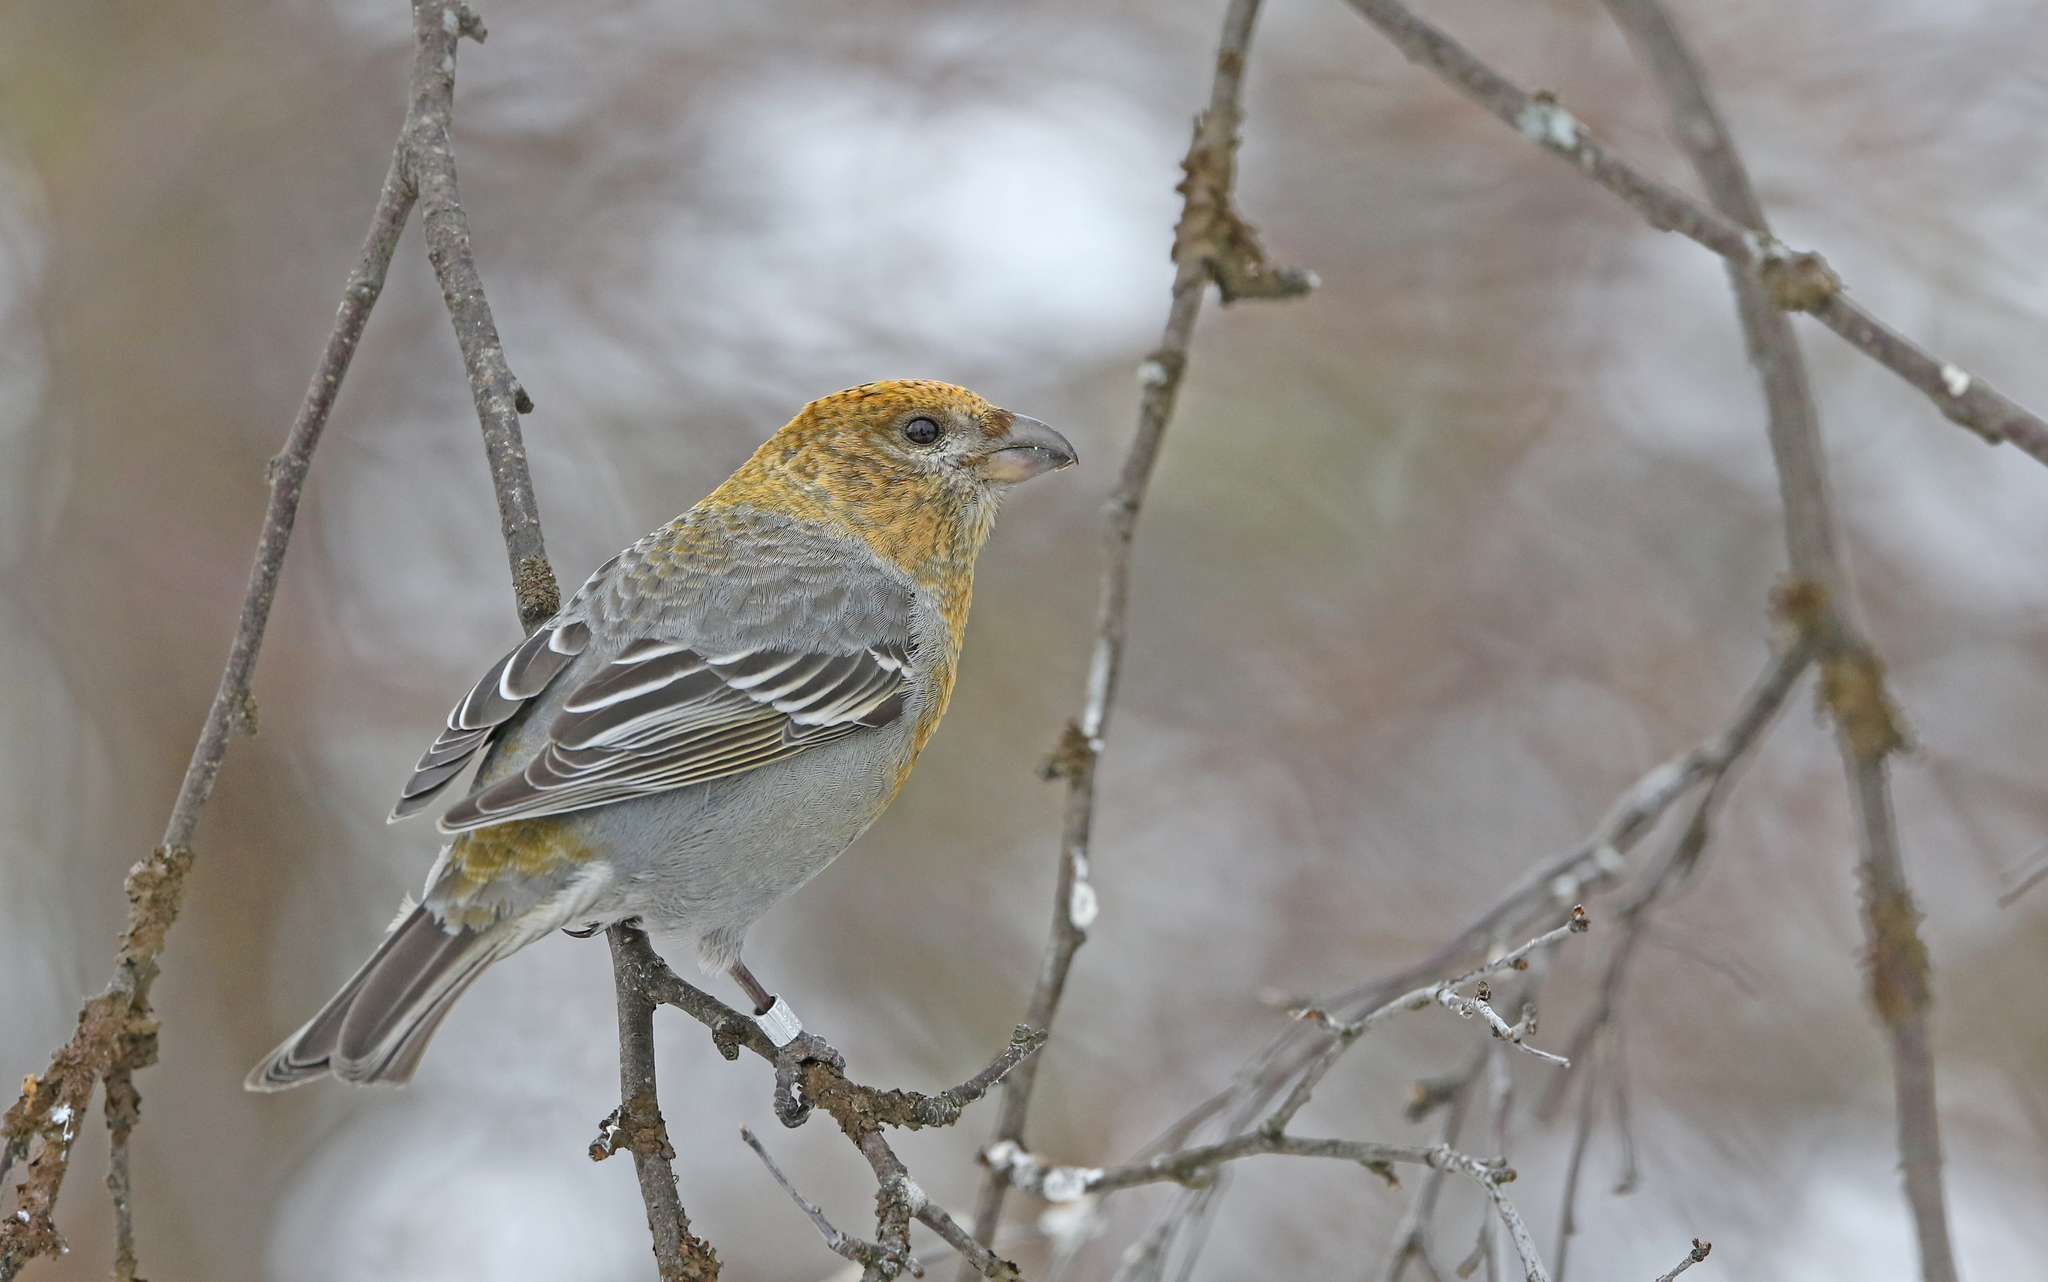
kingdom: Animalia
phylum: Chordata
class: Aves
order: Passeriformes
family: Fringillidae
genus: Pinicola
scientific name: Pinicola enucleator
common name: Pine grosbeak
